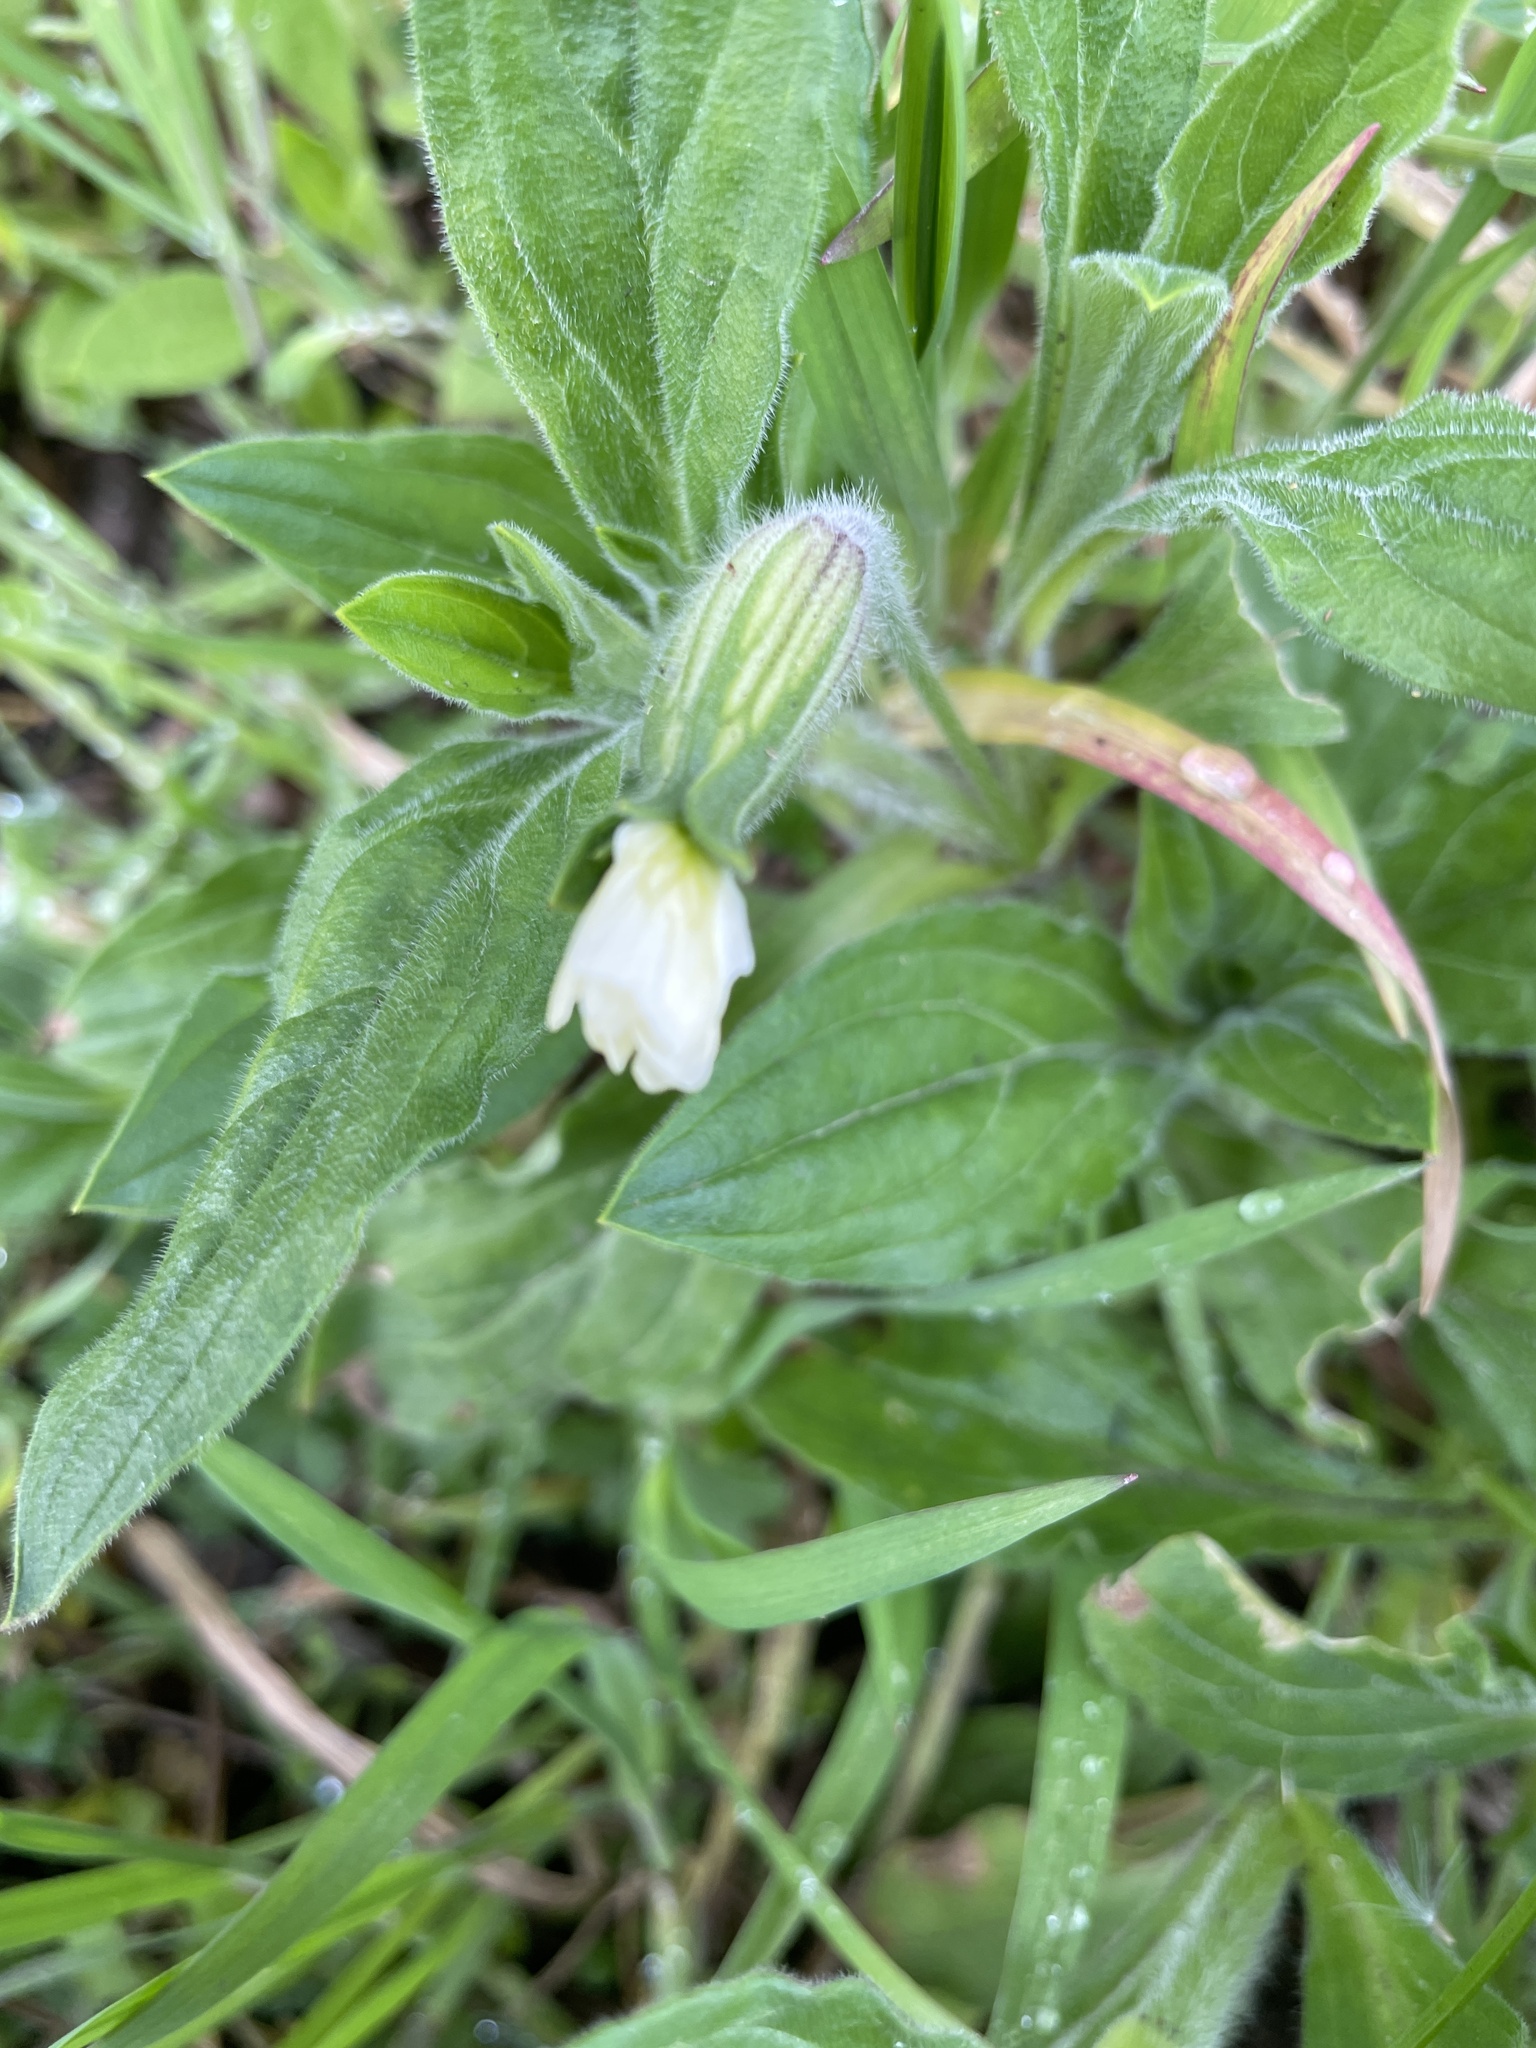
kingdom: Plantae
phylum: Tracheophyta
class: Magnoliopsida
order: Caryophyllales
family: Caryophyllaceae
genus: Silene
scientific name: Silene latifolia
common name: White campion
